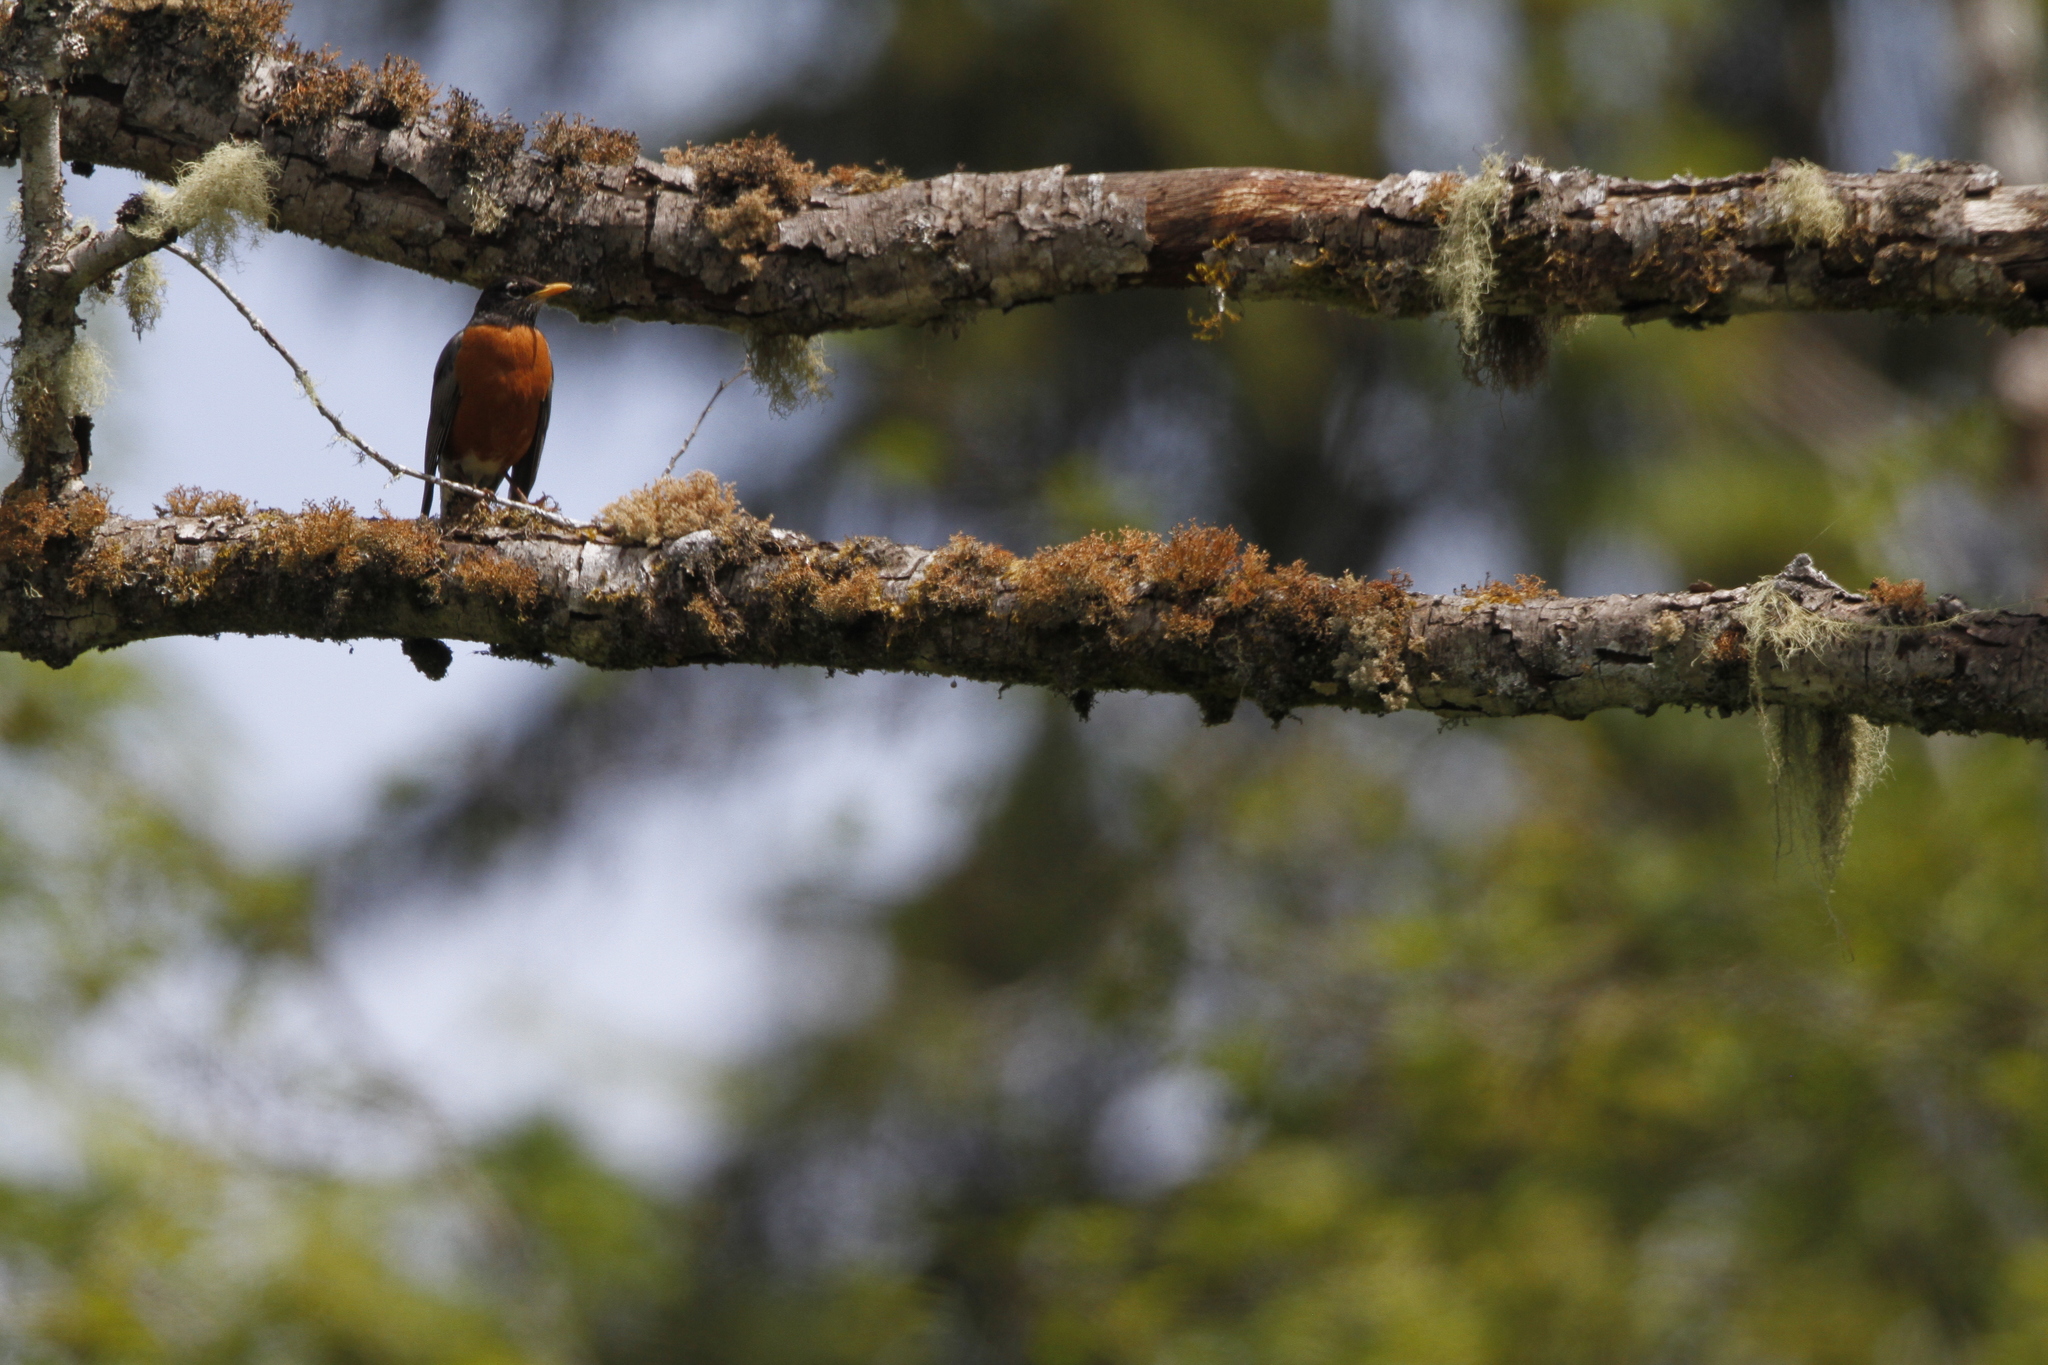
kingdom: Animalia
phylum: Chordata
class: Aves
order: Passeriformes
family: Turdidae
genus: Turdus
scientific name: Turdus migratorius
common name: American robin
